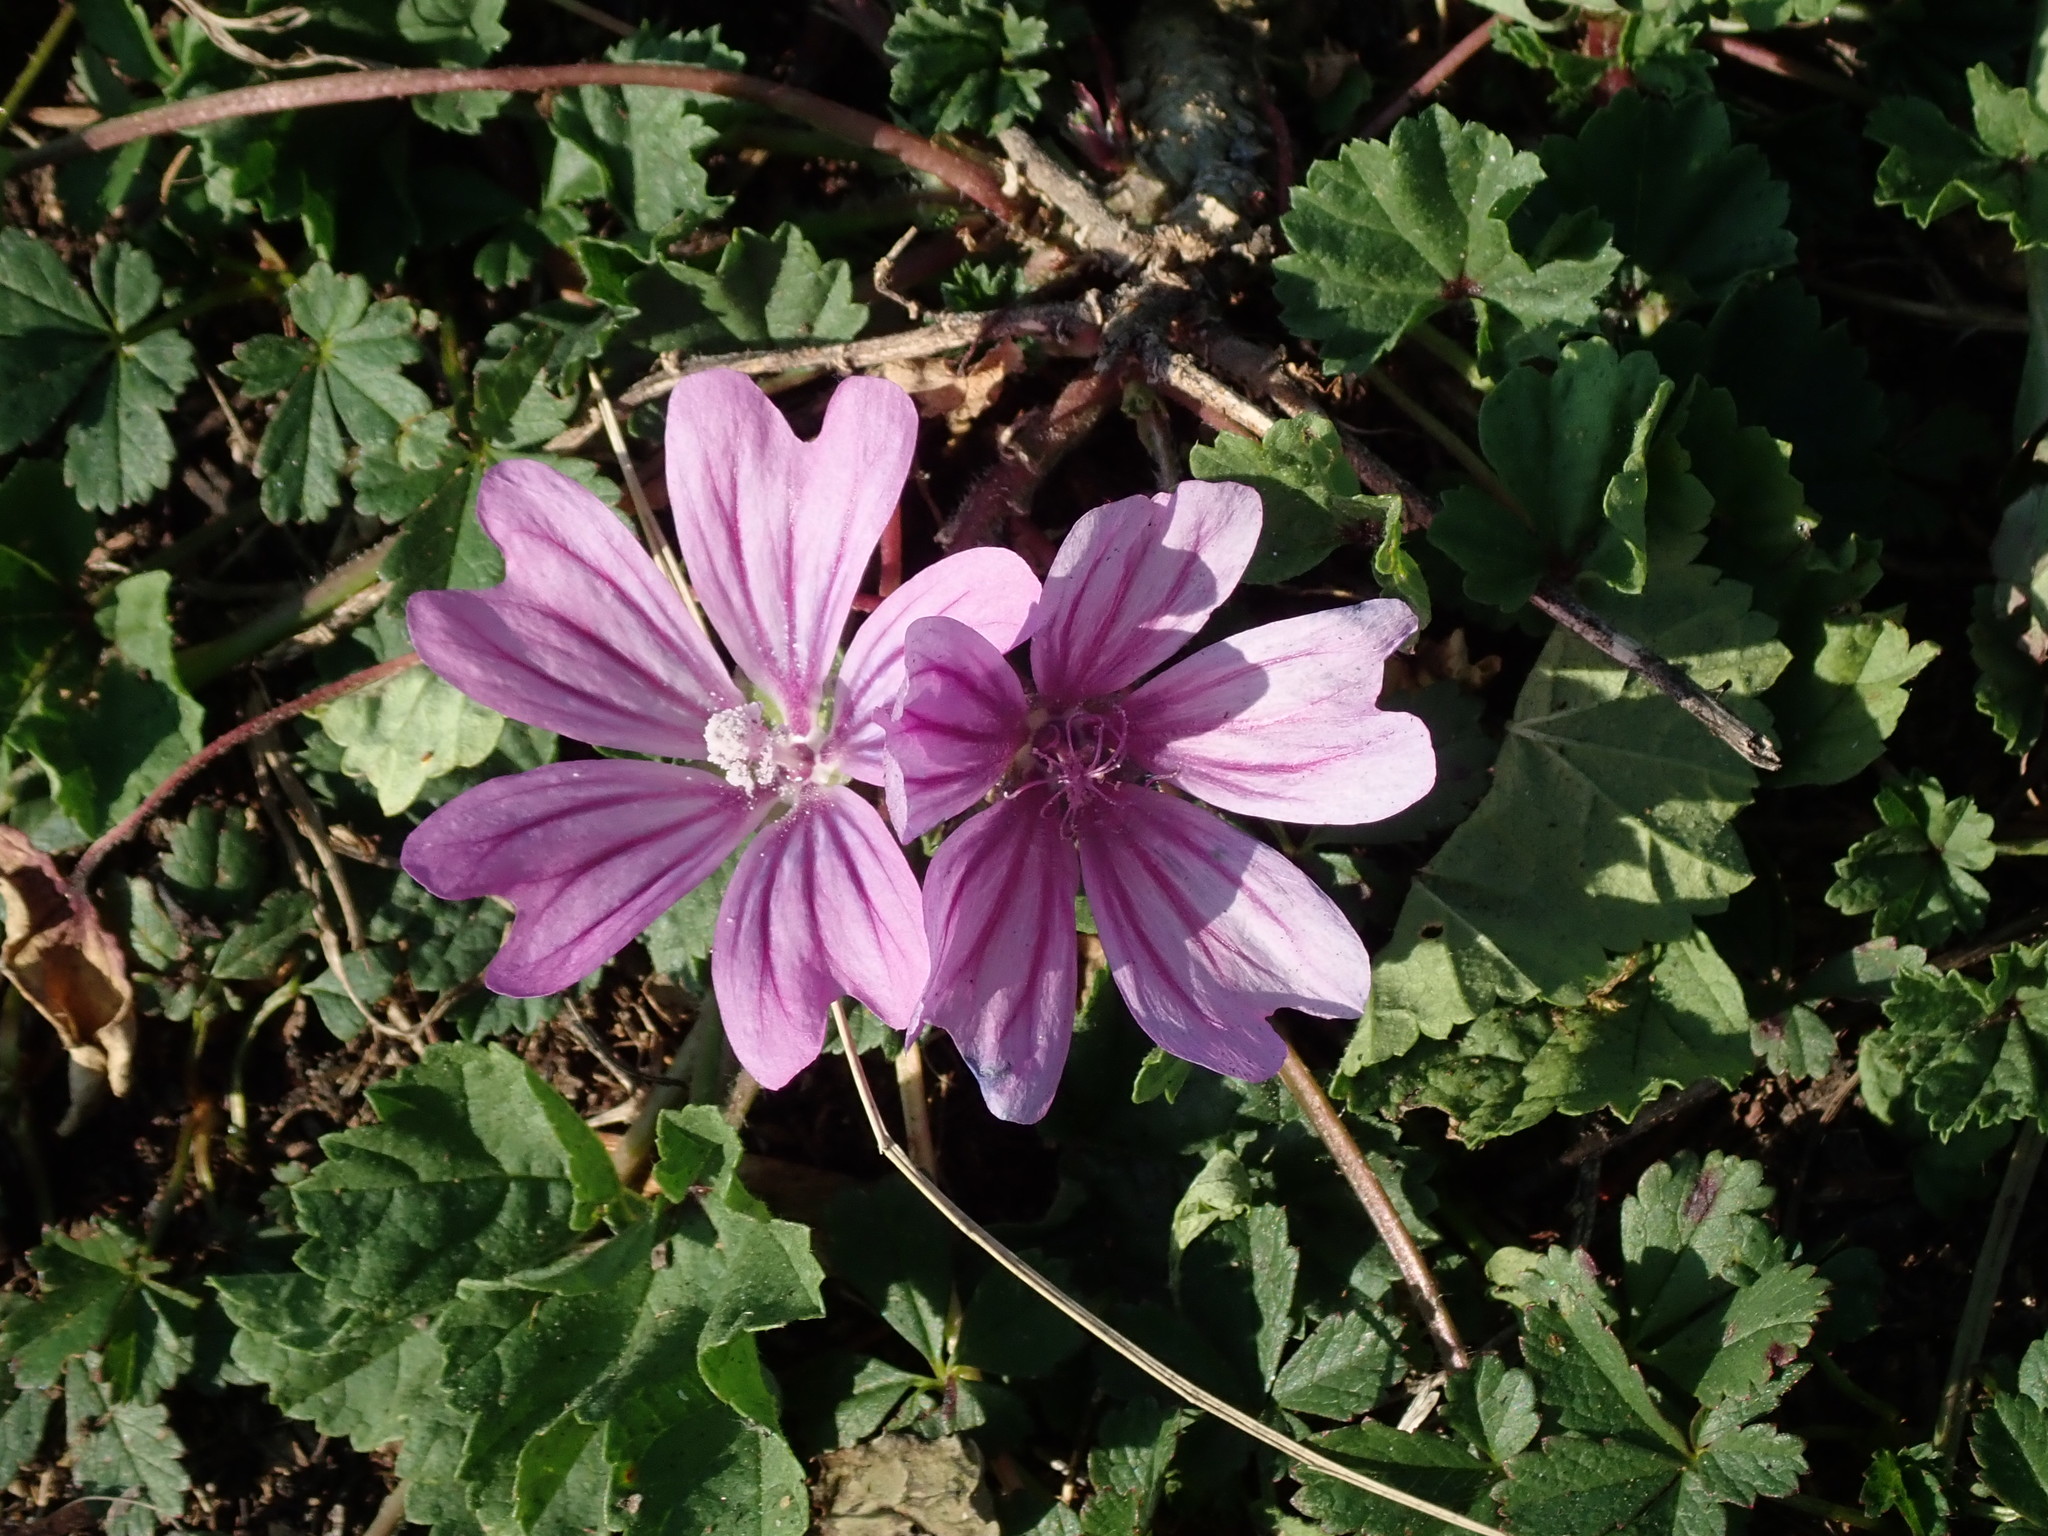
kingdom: Plantae
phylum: Tracheophyta
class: Magnoliopsida
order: Malvales
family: Malvaceae
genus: Malva
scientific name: Malva sylvestris
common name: Common mallow
